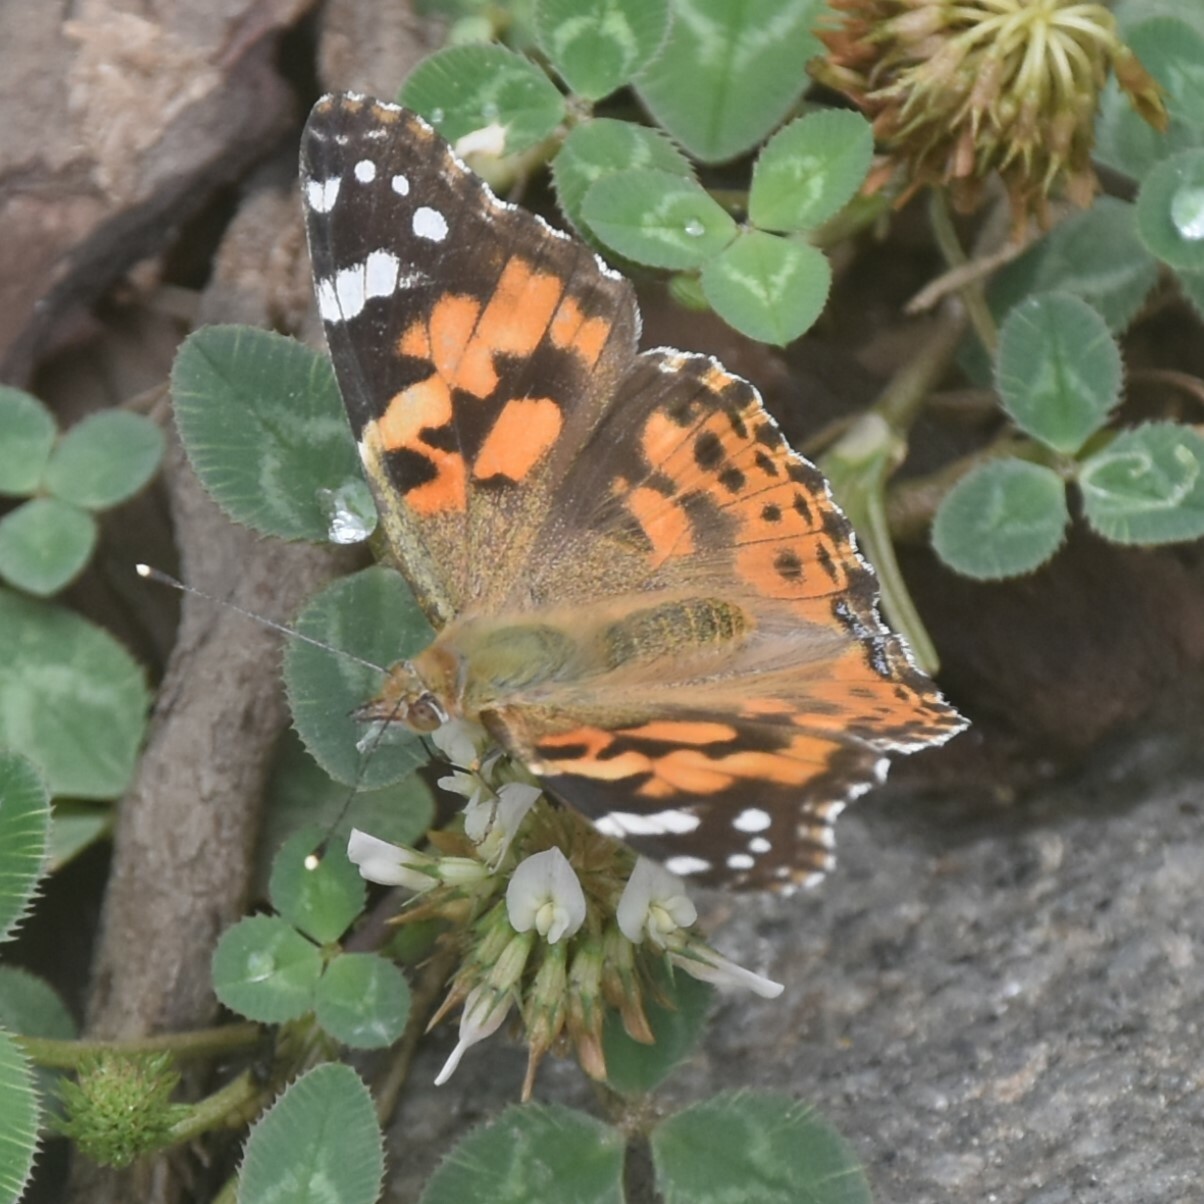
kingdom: Animalia
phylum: Arthropoda
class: Insecta
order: Lepidoptera
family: Nymphalidae
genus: Vanessa
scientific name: Vanessa cardui
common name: Painted lady
